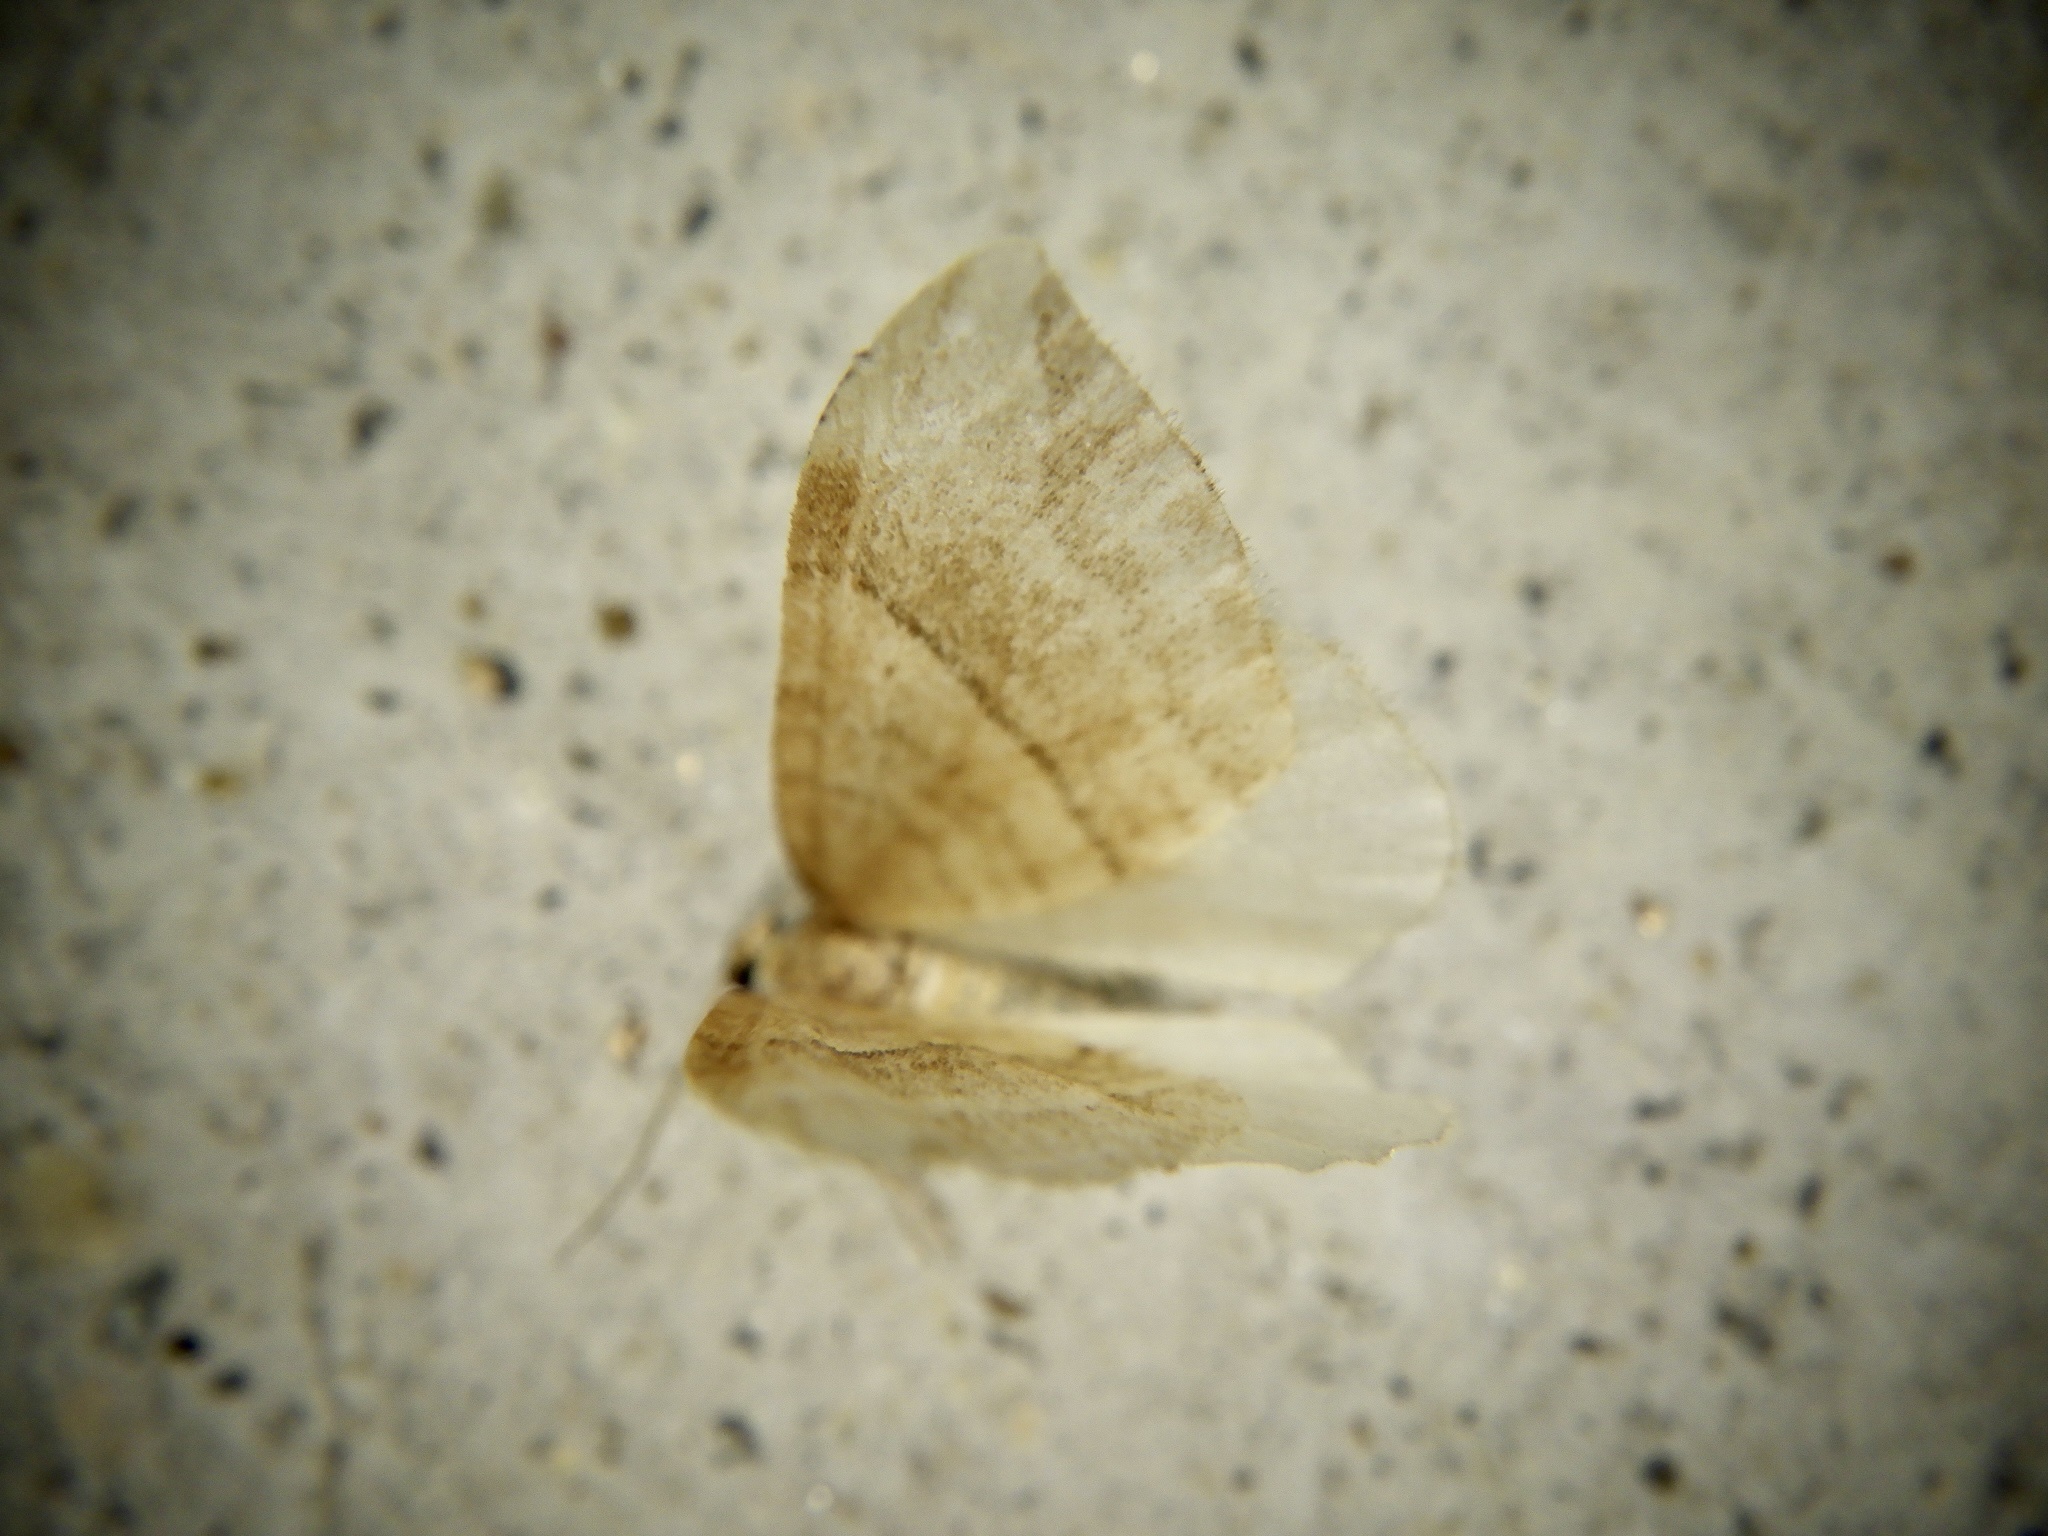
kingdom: Animalia
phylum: Arthropoda
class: Insecta
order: Lepidoptera
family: Geometridae
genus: Nothoporinia
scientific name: Nothoporinia mediolineata
